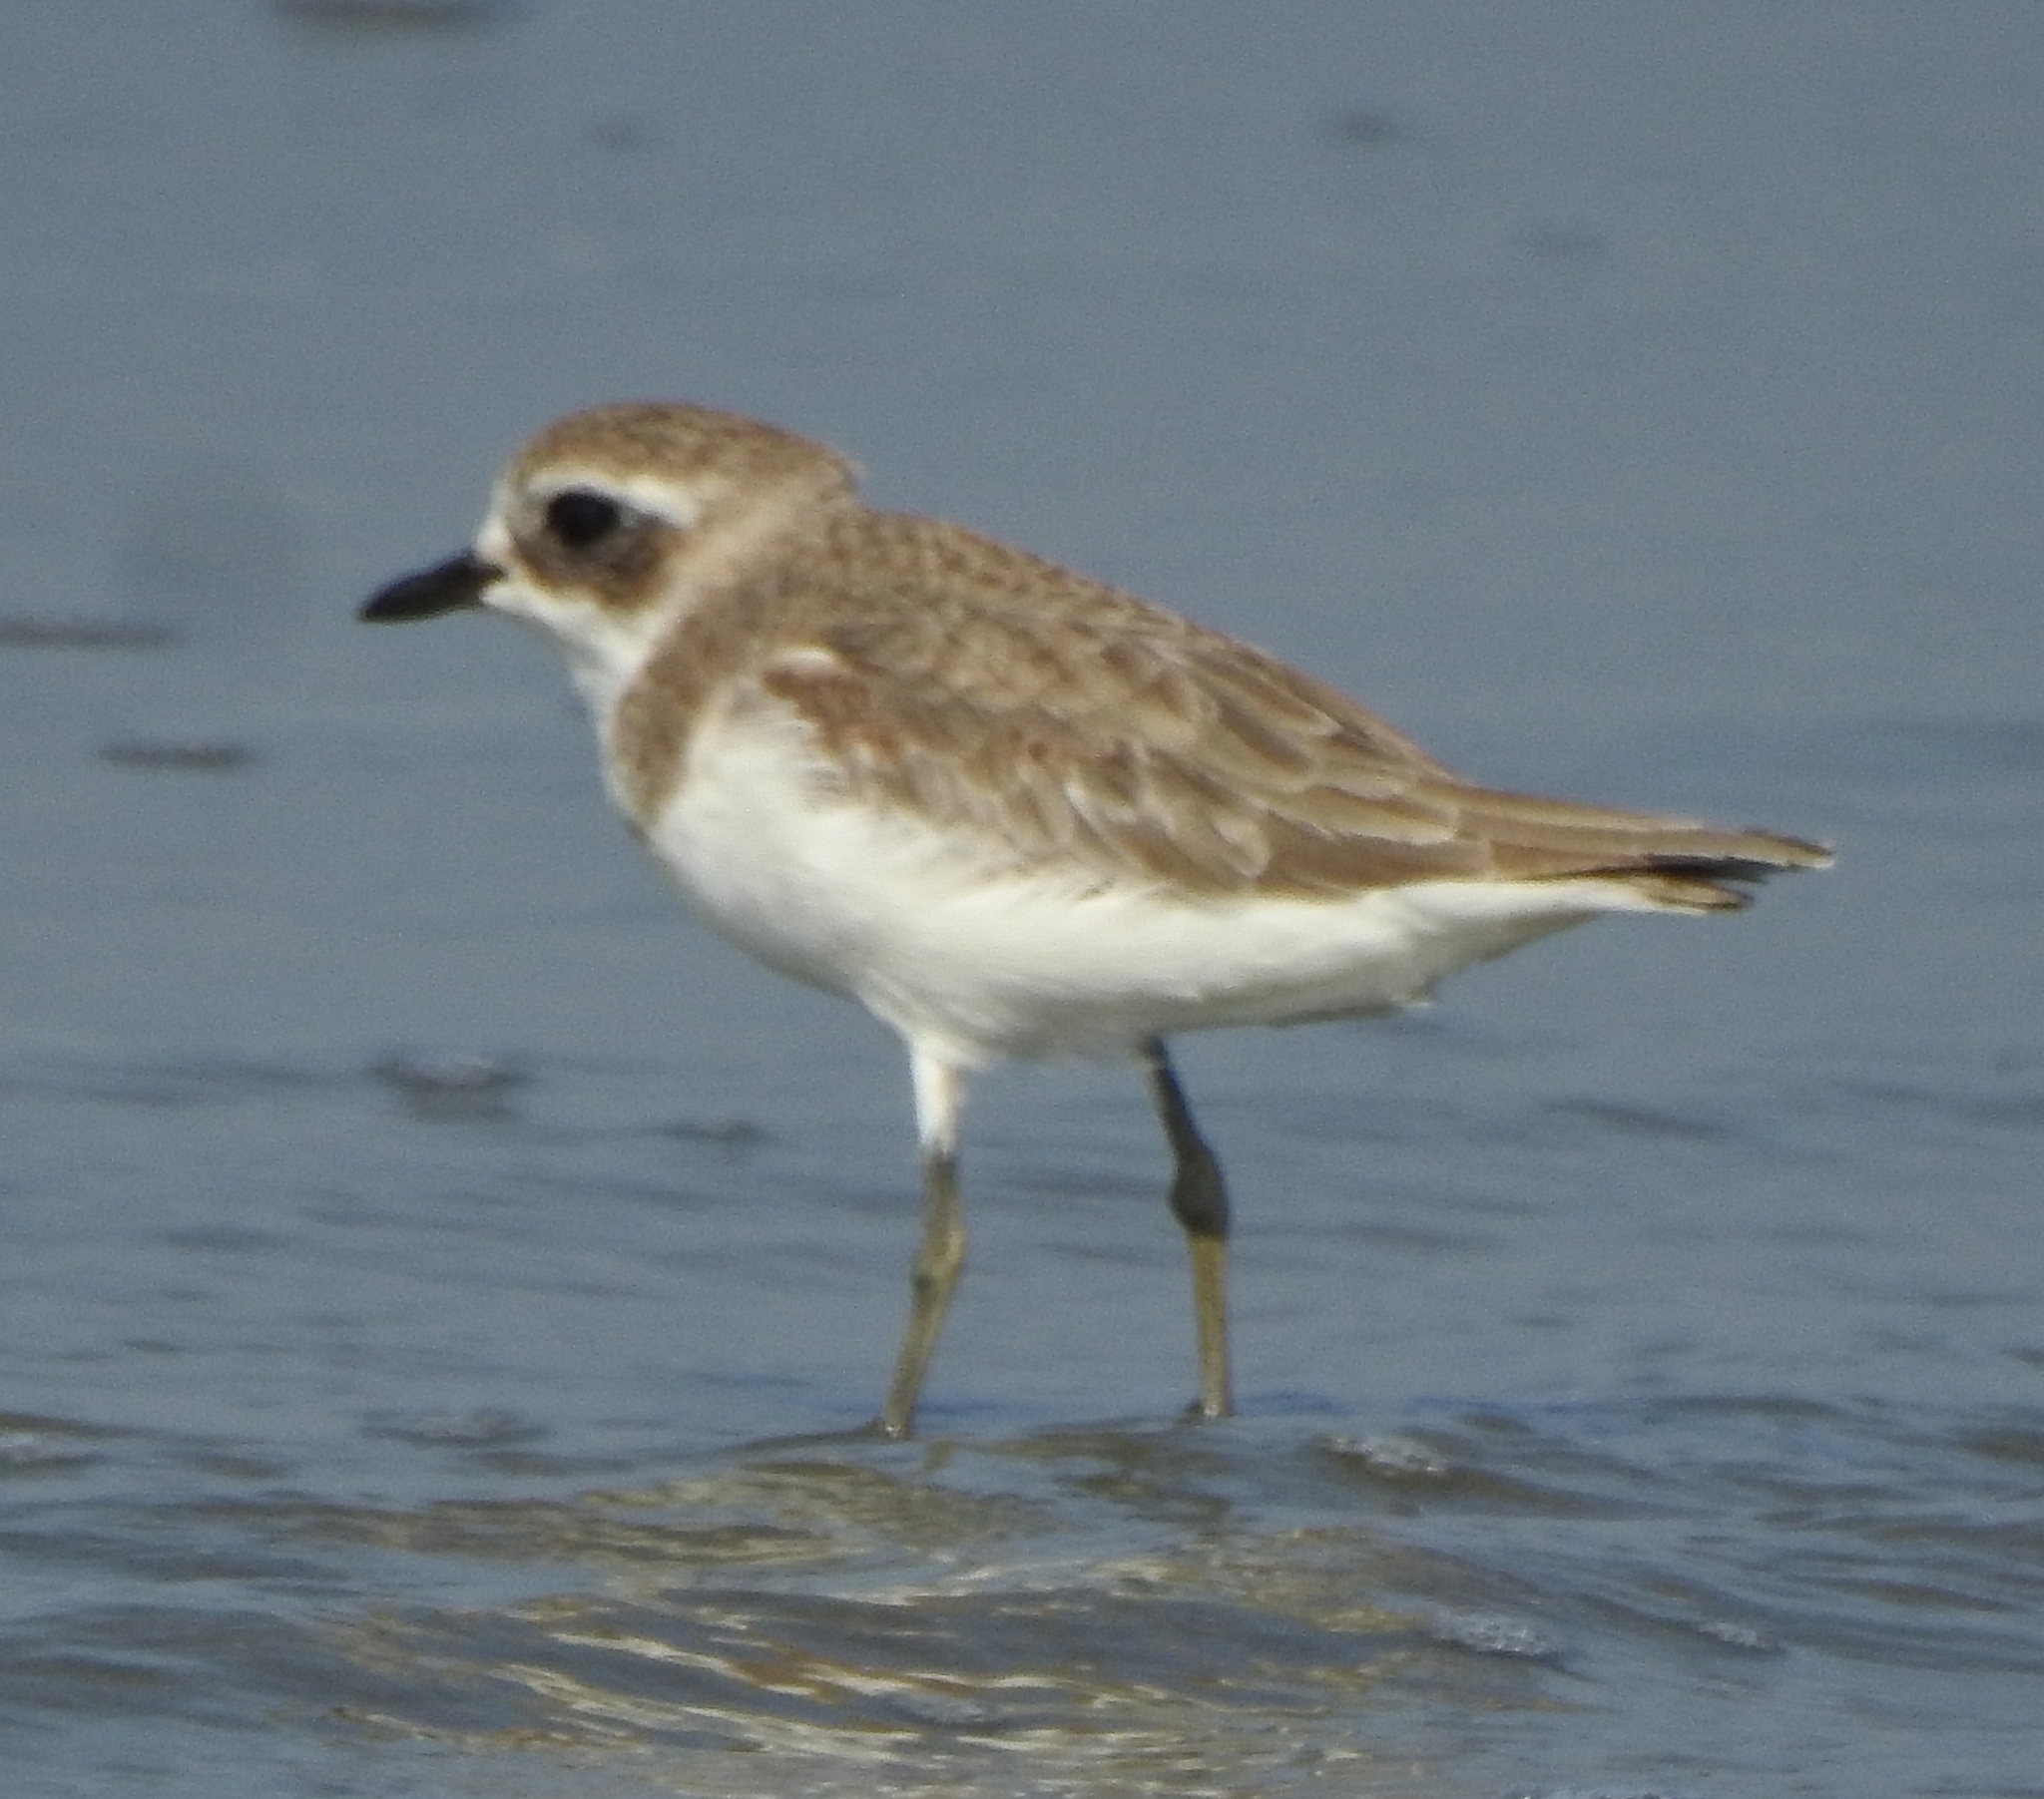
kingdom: Animalia
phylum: Chordata
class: Aves
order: Charadriiformes
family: Charadriidae
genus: Charadrius
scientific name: Charadrius leschenaultii
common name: Greater sand plover
